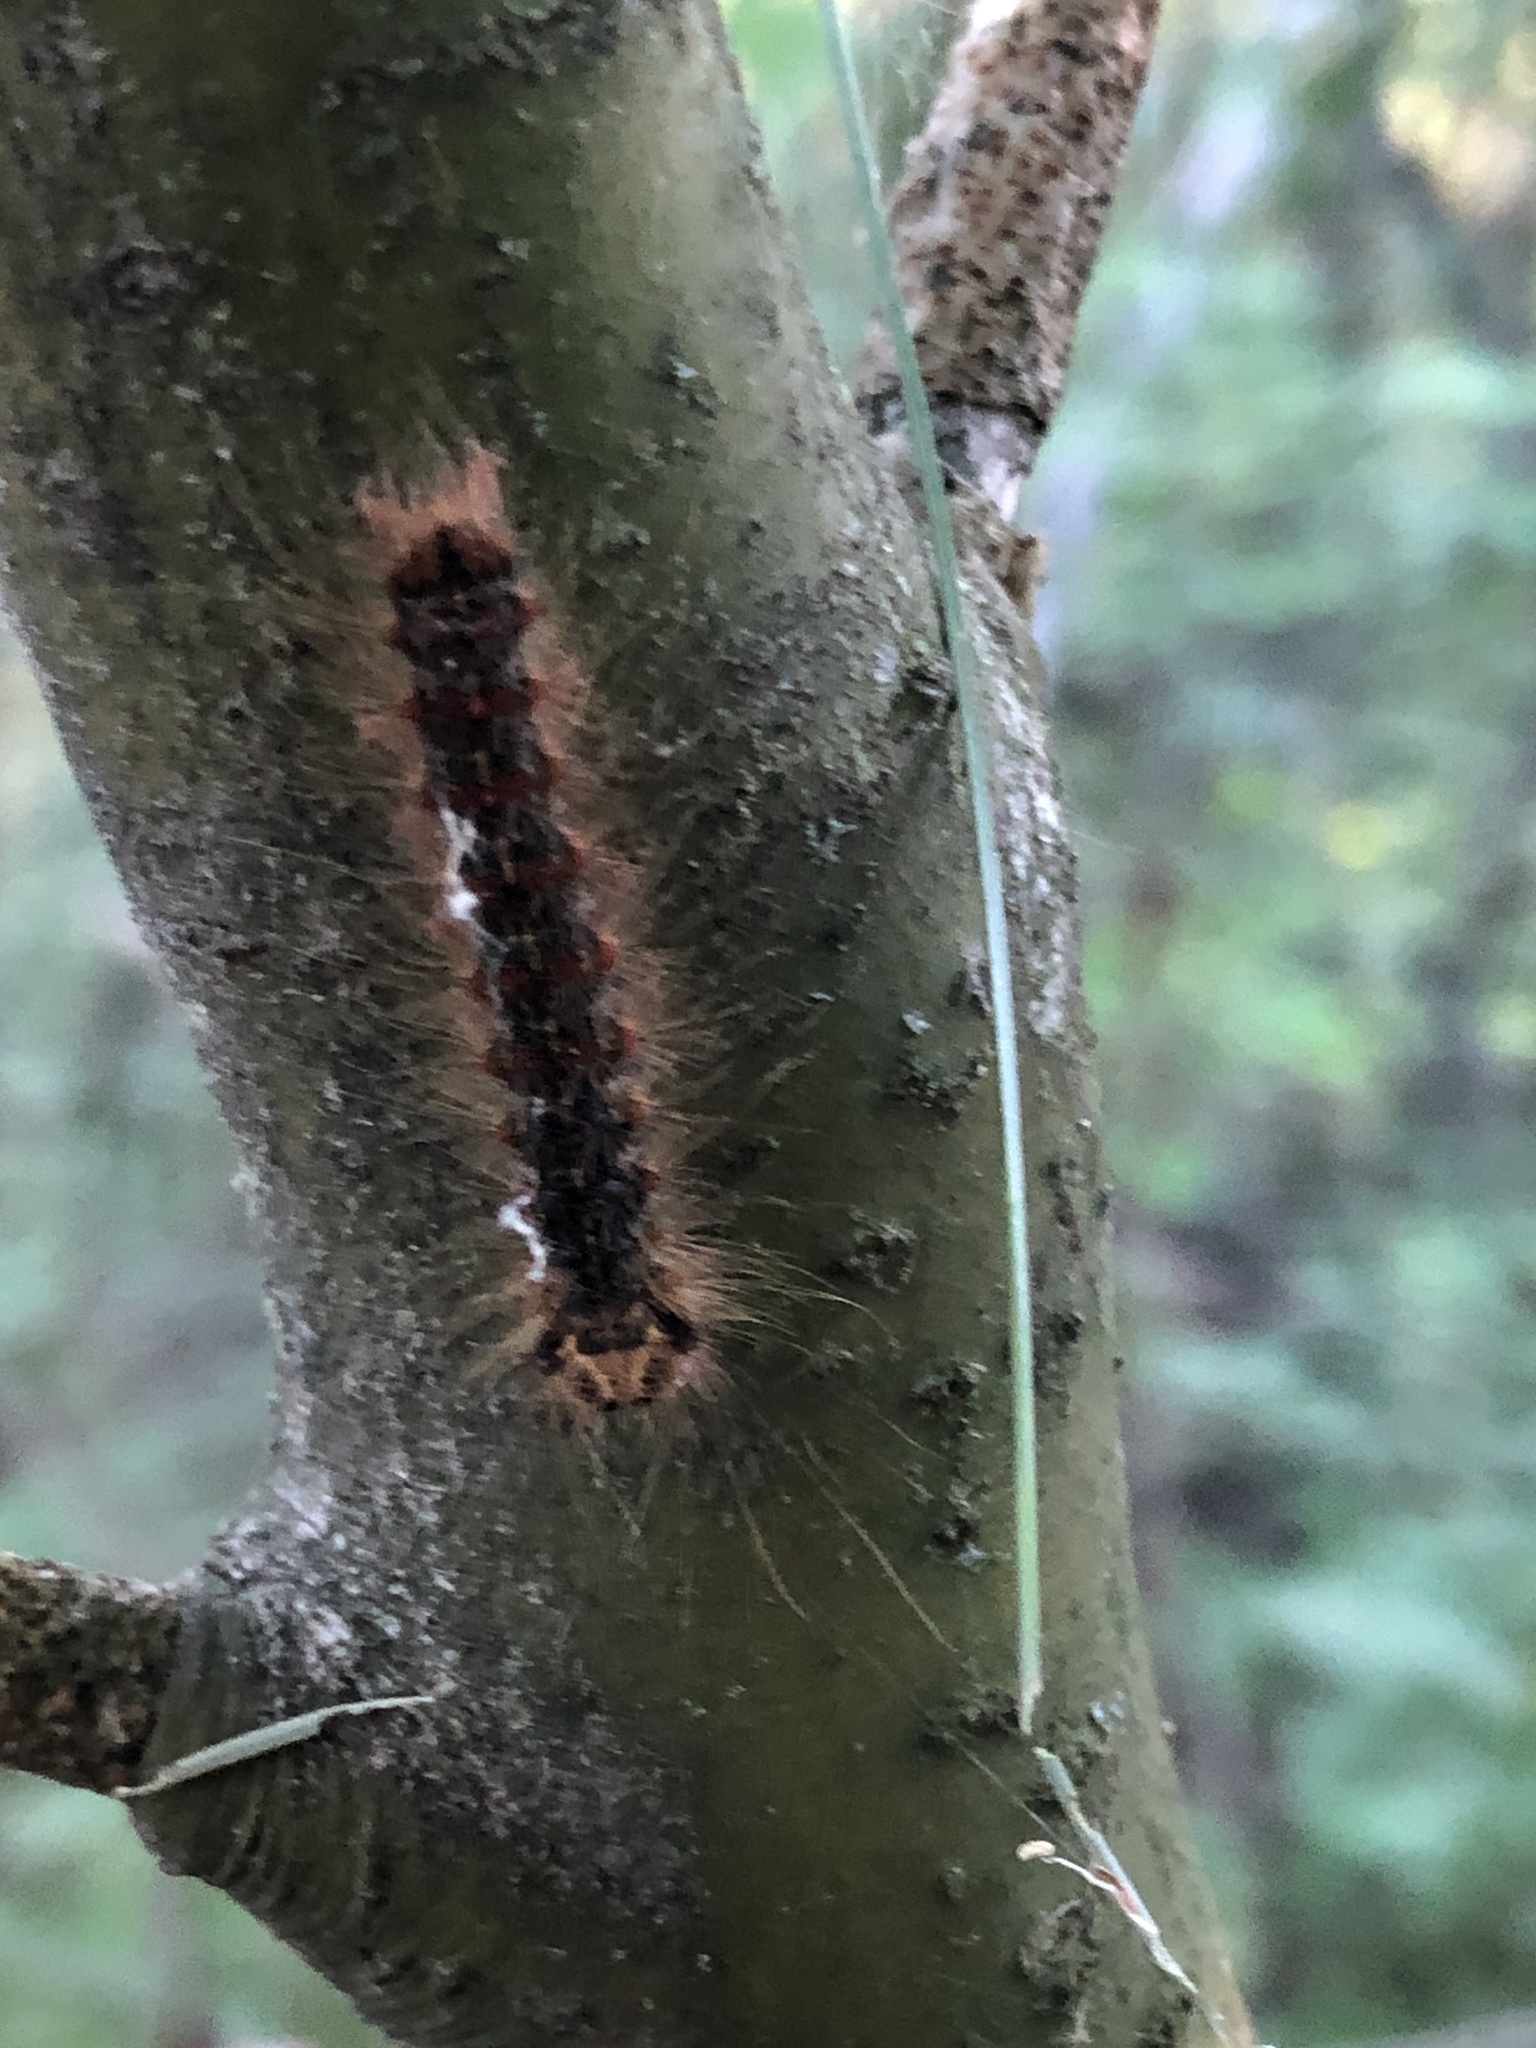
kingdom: Animalia
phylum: Arthropoda
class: Insecta
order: Lepidoptera
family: Erebidae
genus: Lymantria
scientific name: Lymantria dispar
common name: Gypsy moth
